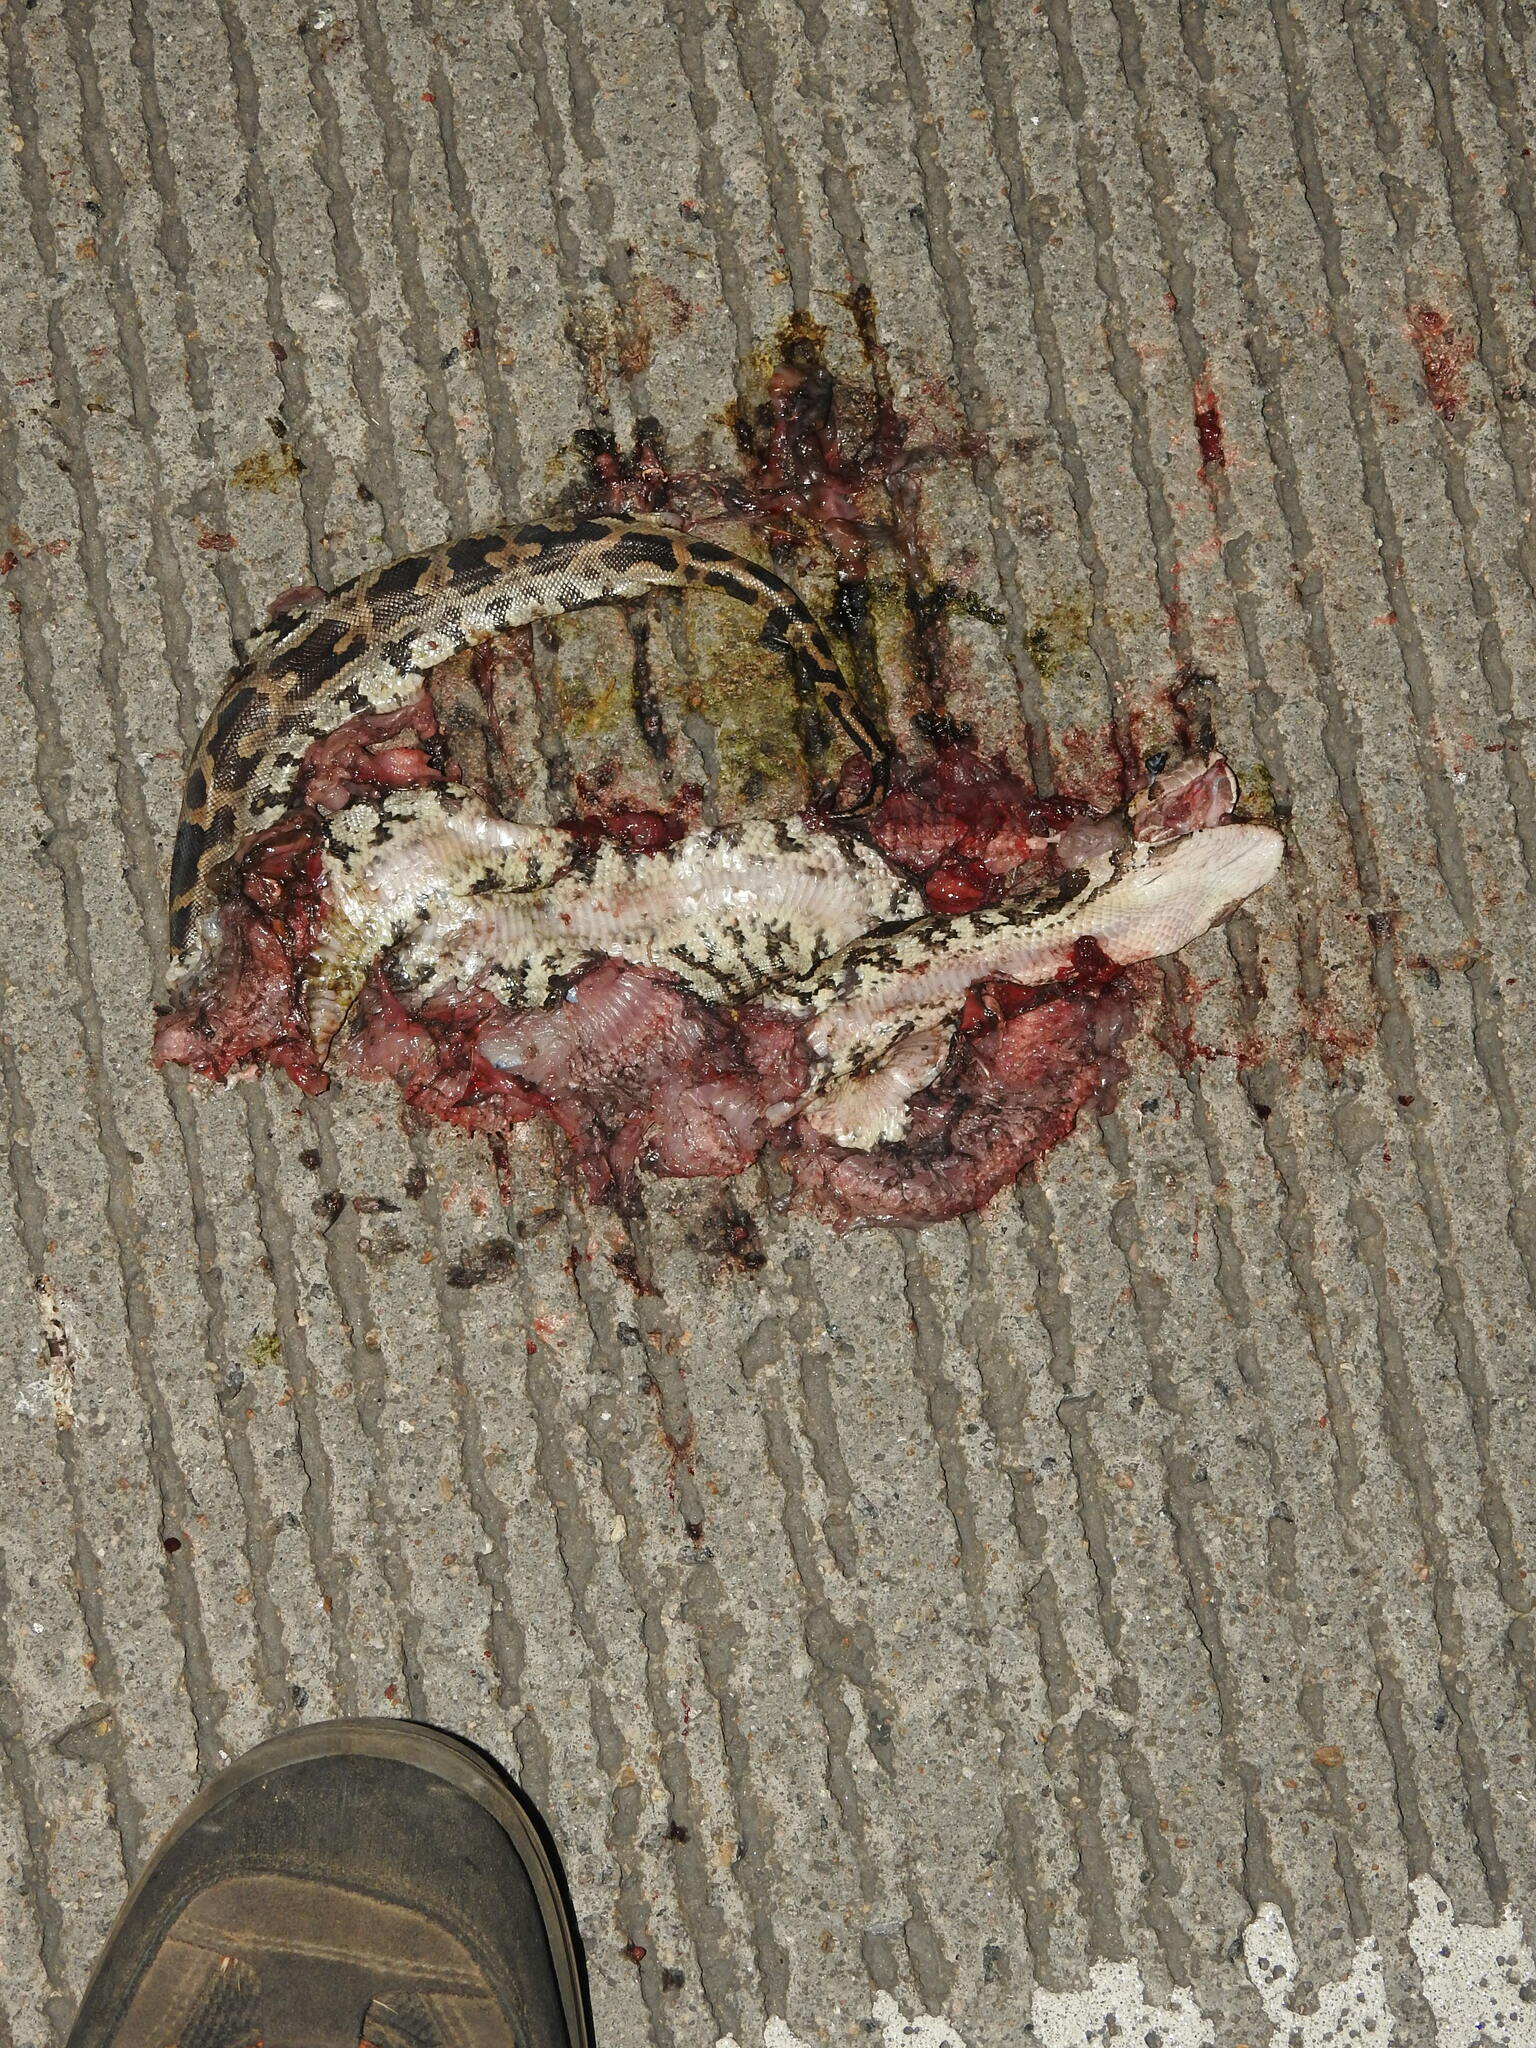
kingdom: Animalia
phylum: Chordata
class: Squamata
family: Pythonidae
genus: Python
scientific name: Python molurus
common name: Indian rock python
